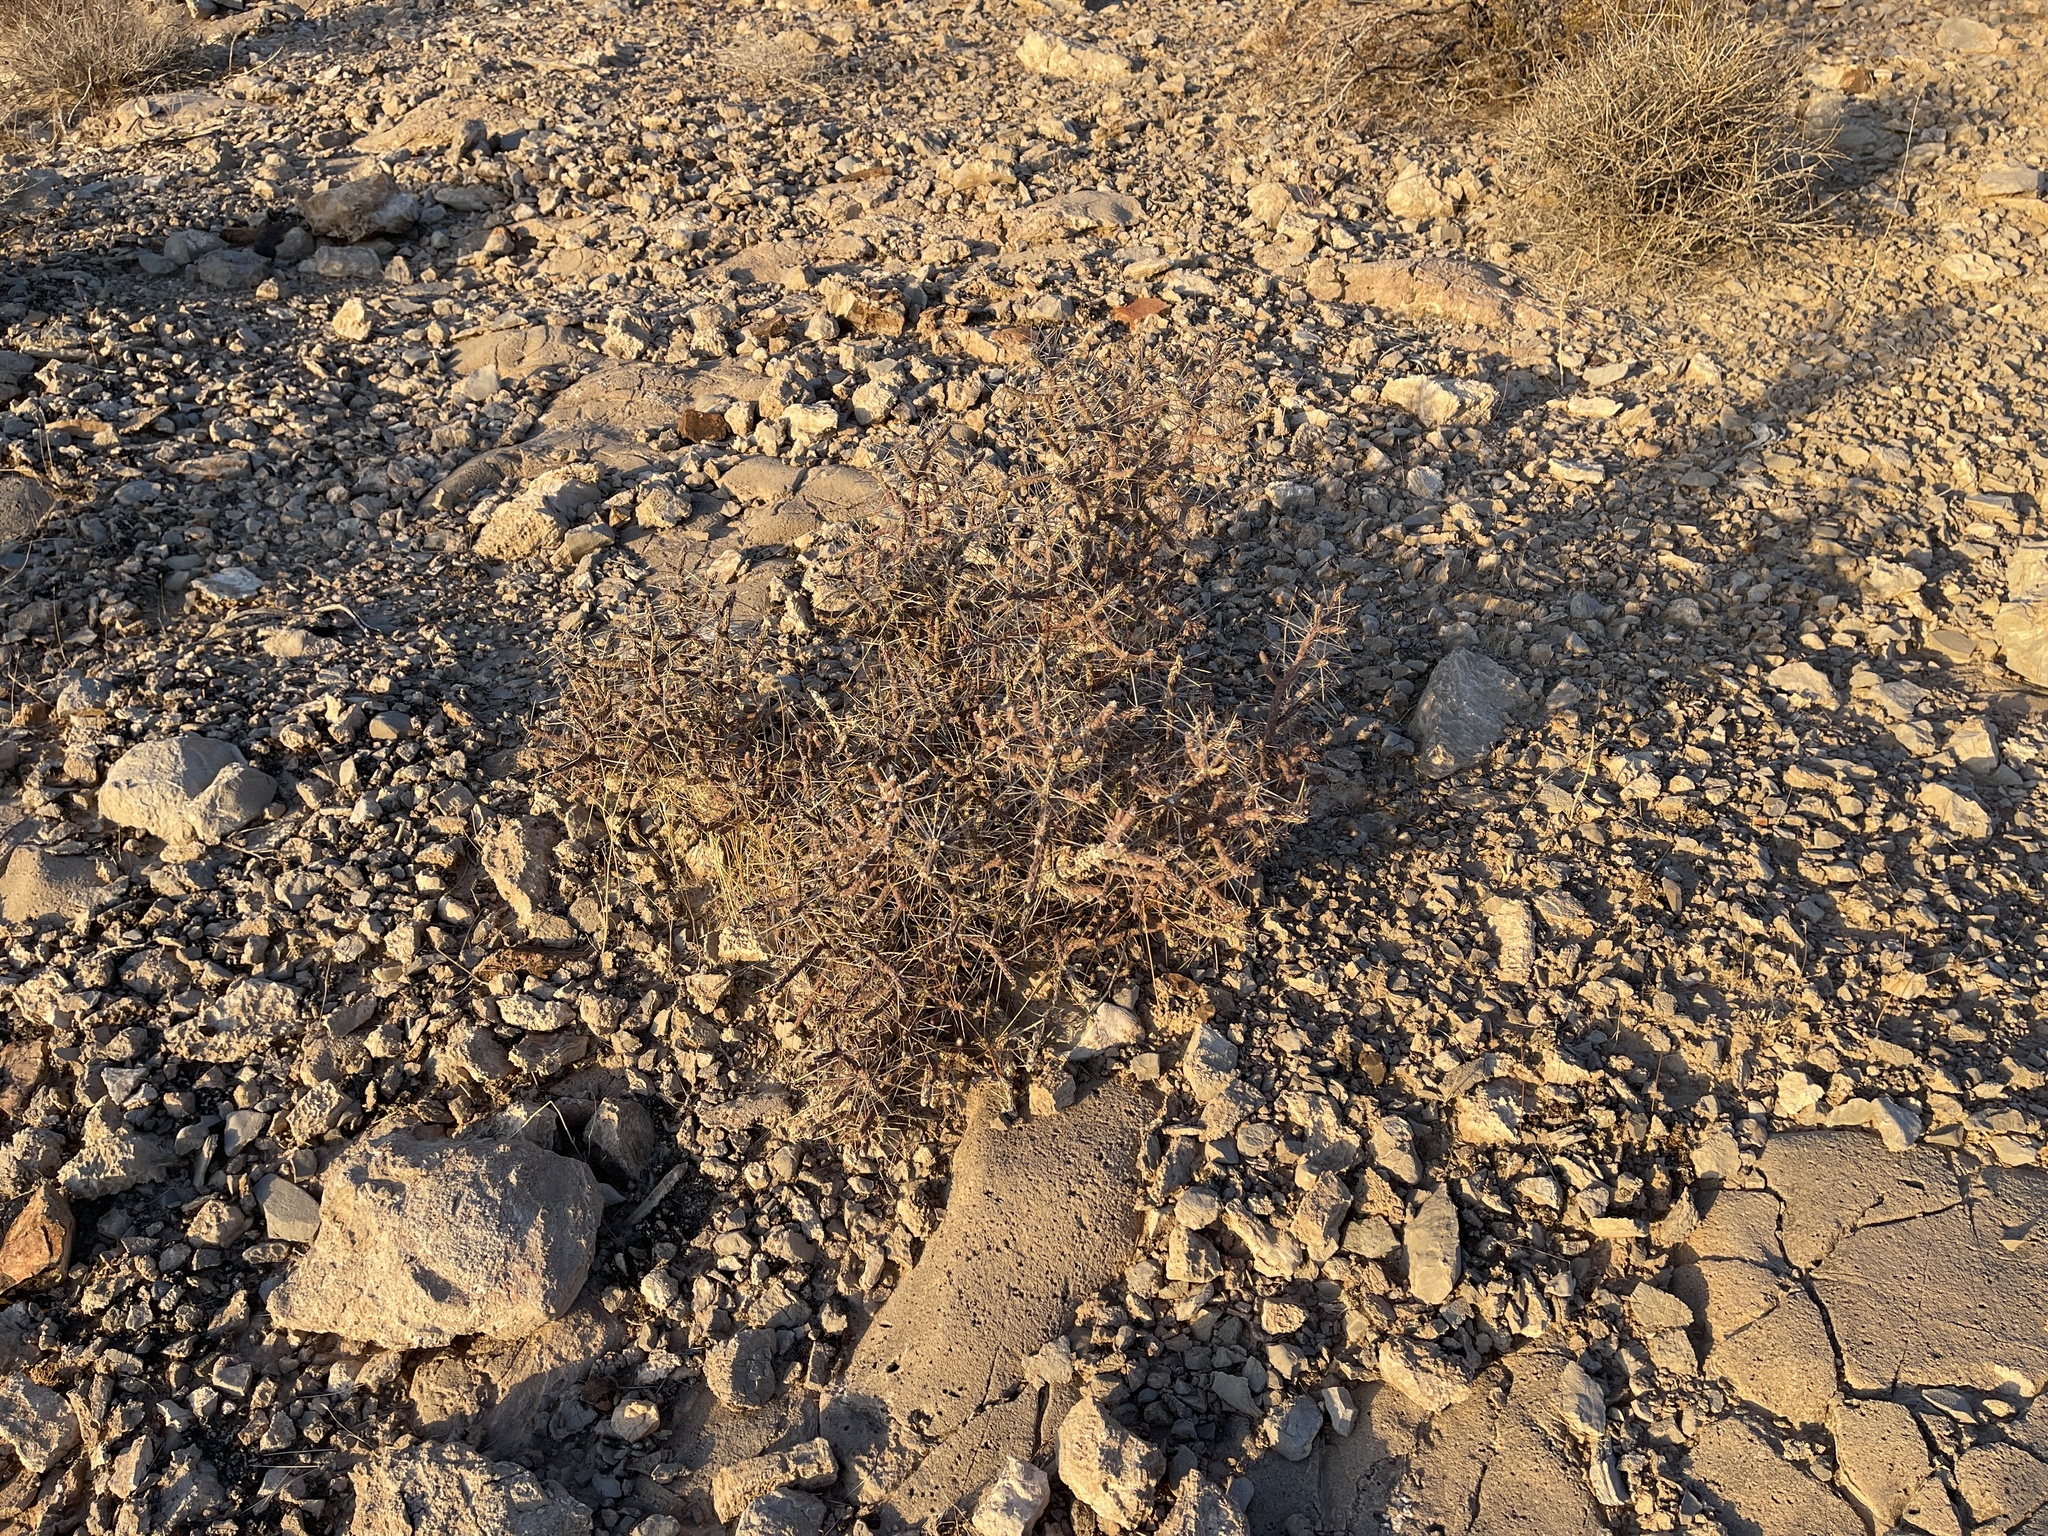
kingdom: Plantae
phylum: Tracheophyta
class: Magnoliopsida
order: Caryophyllales
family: Cactaceae
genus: Cylindropuntia
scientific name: Cylindropuntia ramosissima
